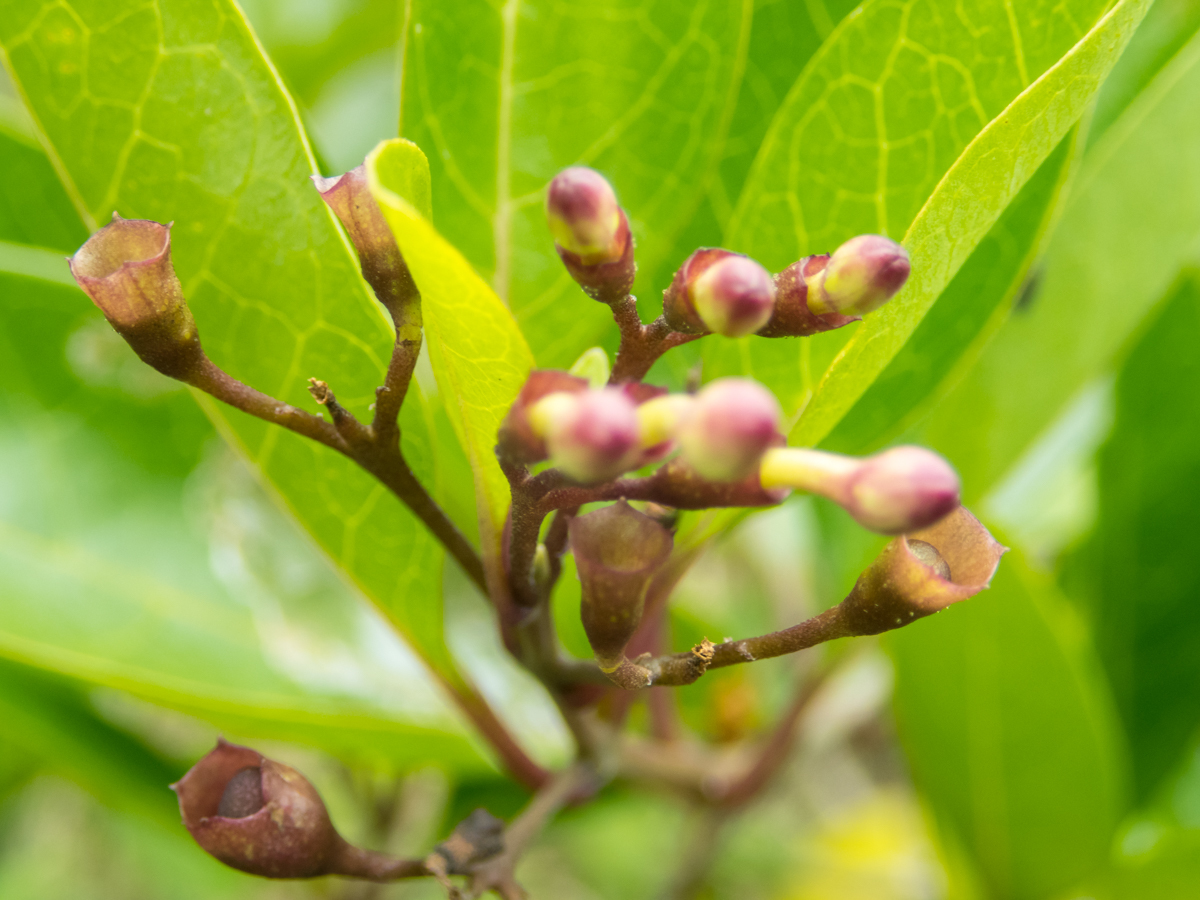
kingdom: Plantae
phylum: Tracheophyta
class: Magnoliopsida
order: Lamiales
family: Lamiaceae
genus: Volkameria
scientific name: Volkameria inermis
